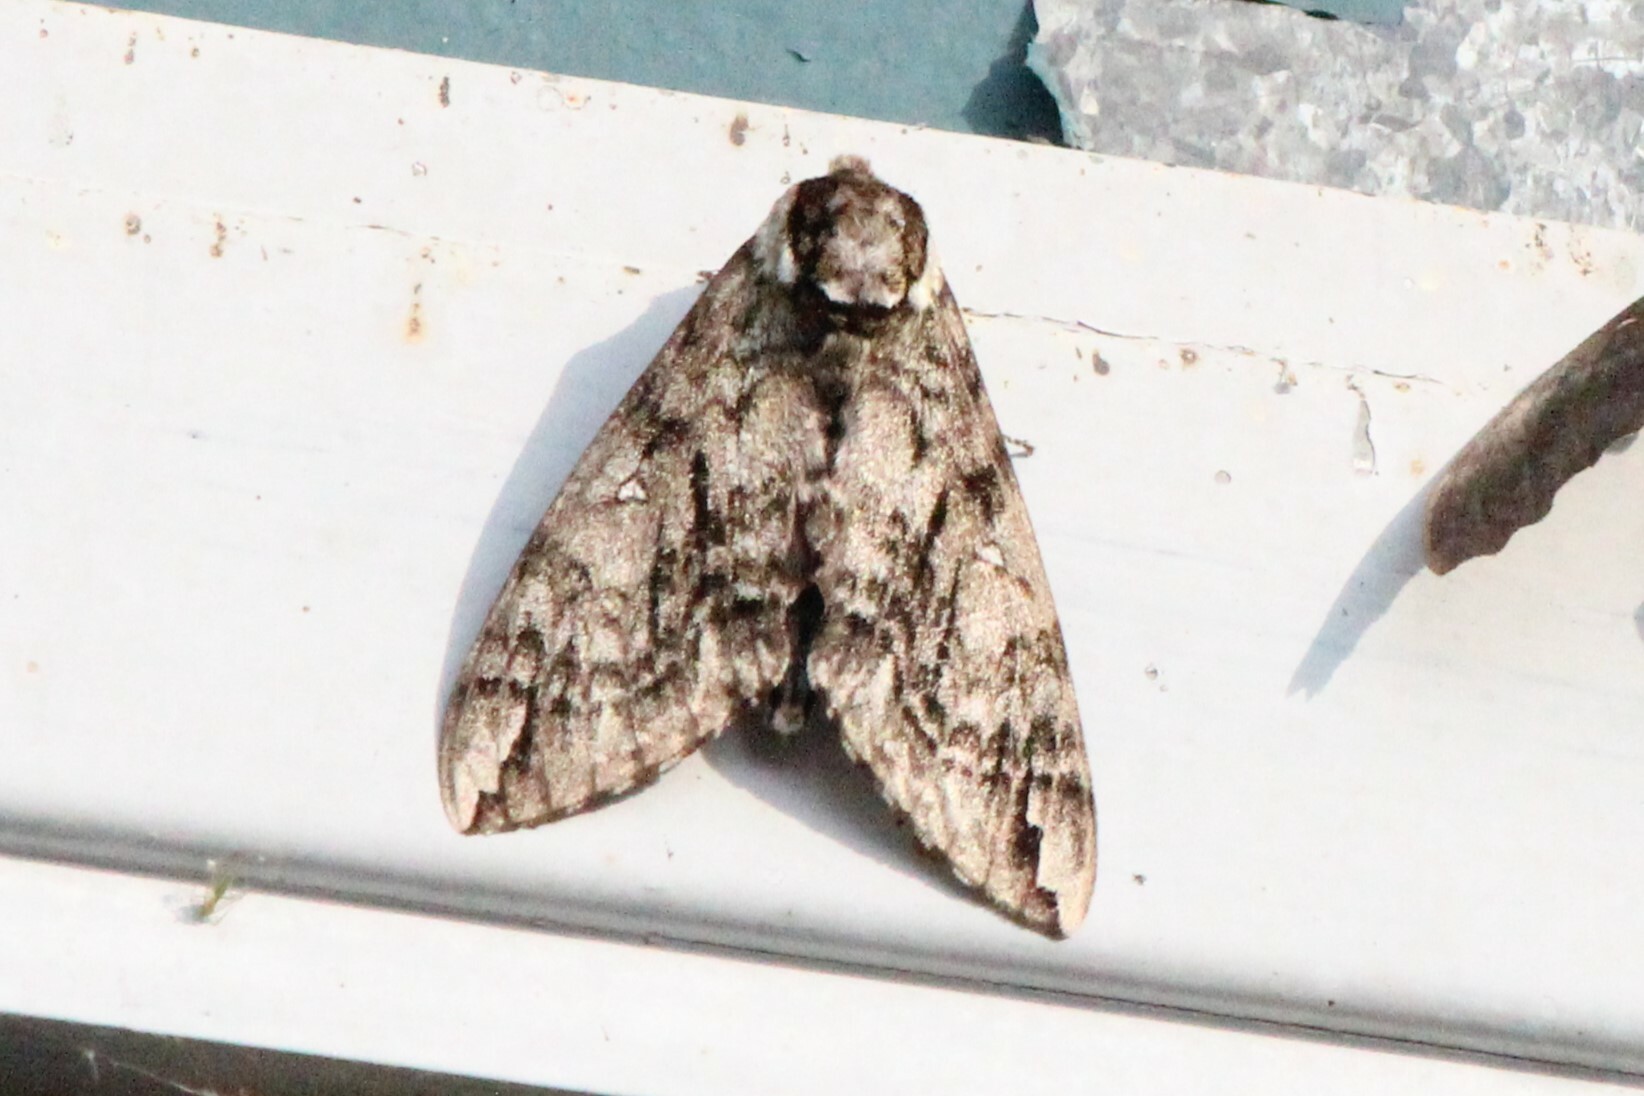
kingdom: Animalia
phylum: Arthropoda
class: Insecta
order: Lepidoptera
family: Sphingidae
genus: Ceratomia
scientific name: Ceratomia undulosa
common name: Waved sphinx
